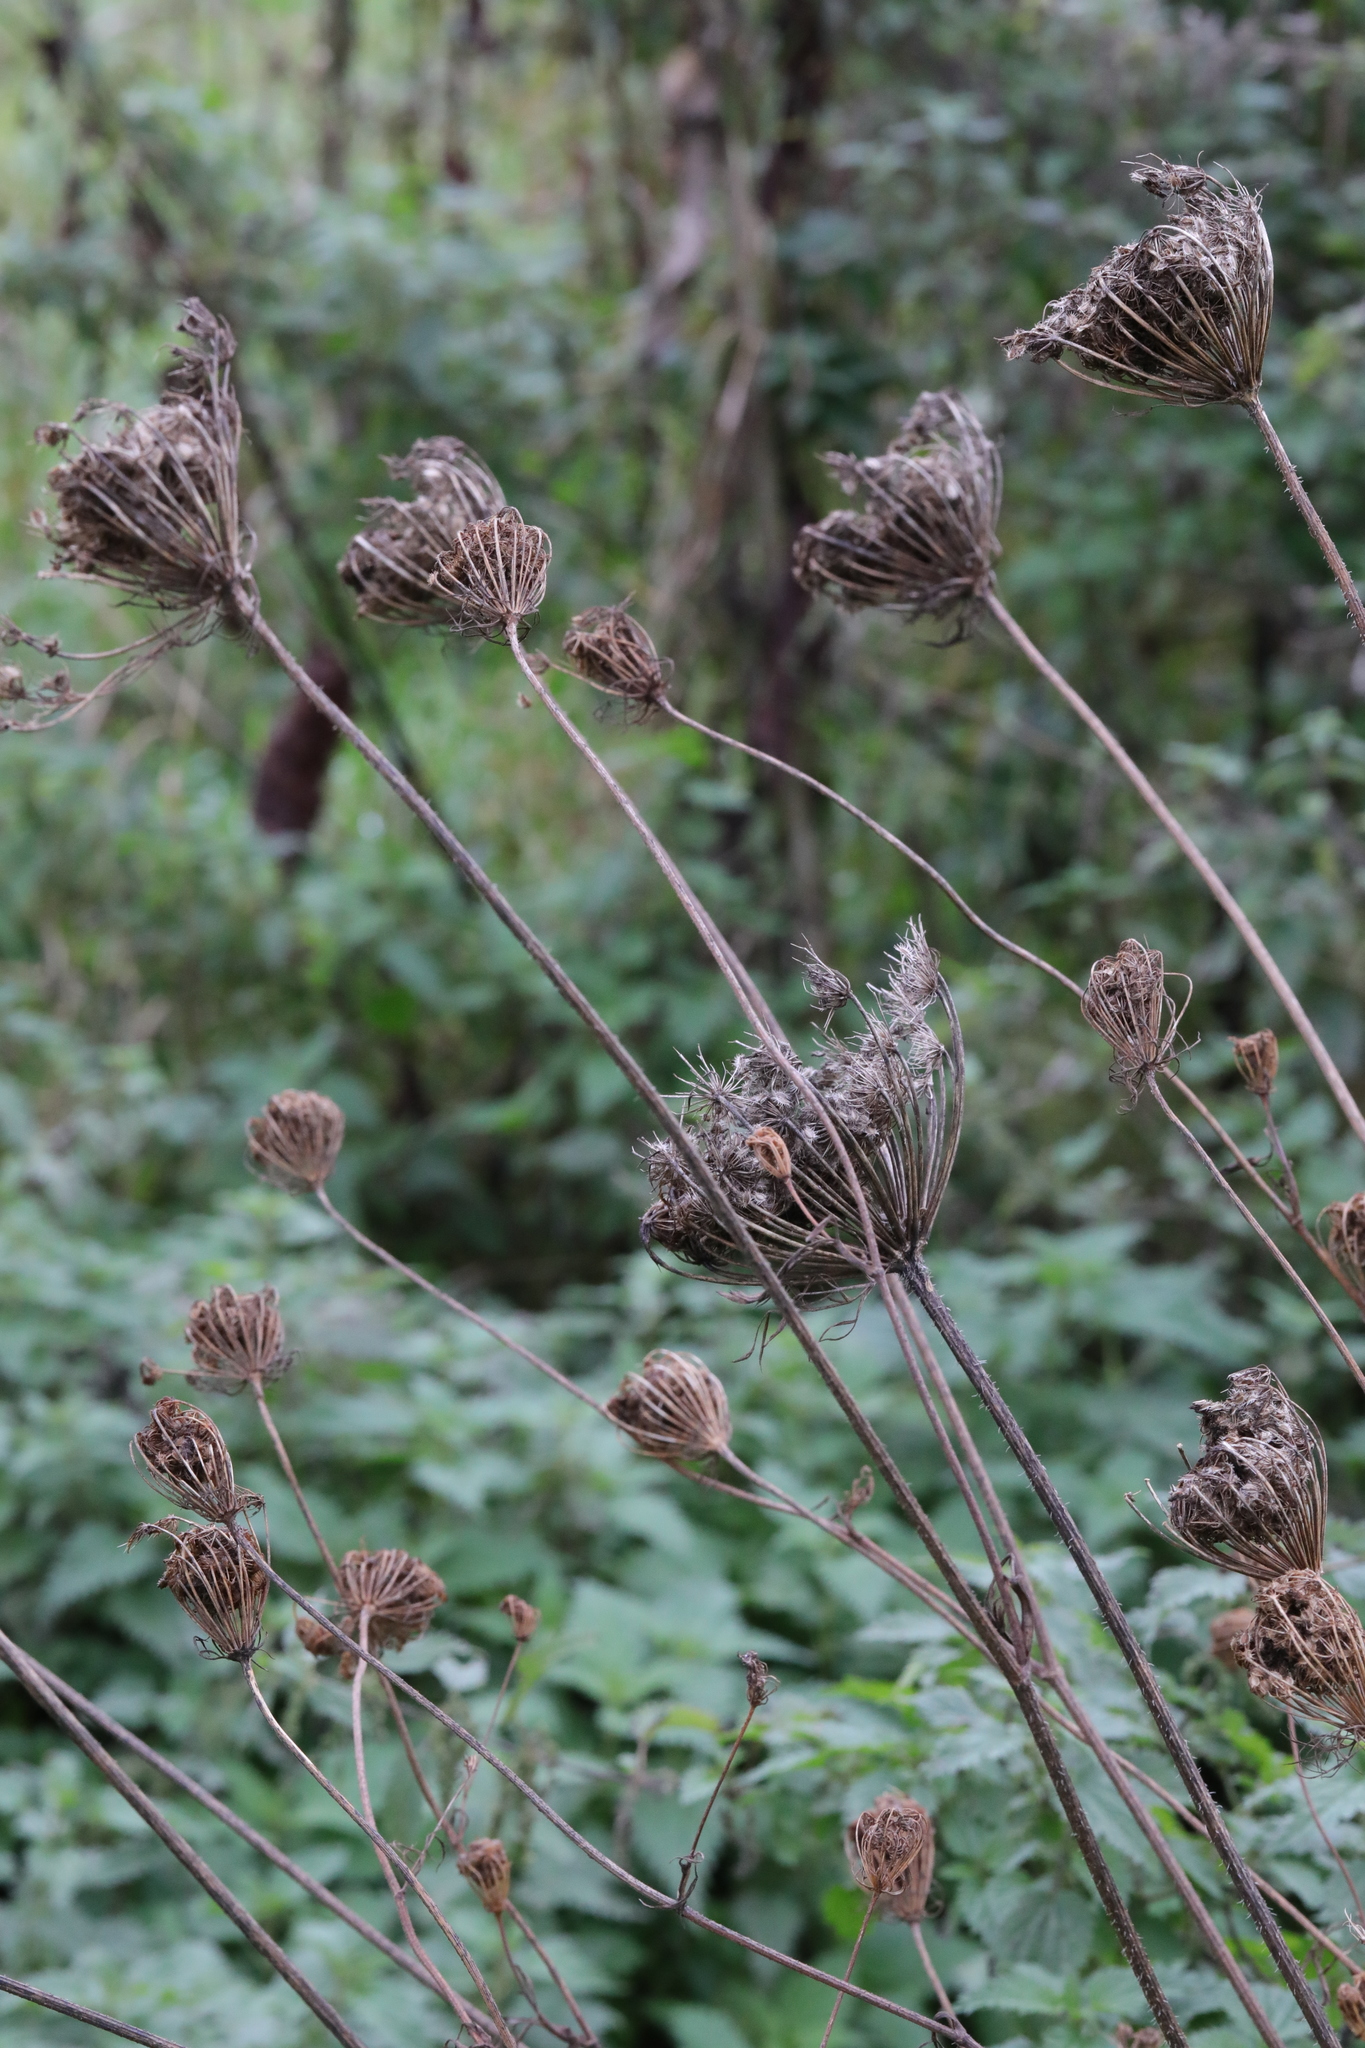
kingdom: Plantae
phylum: Tracheophyta
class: Magnoliopsida
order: Apiales
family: Apiaceae
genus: Daucus
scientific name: Daucus carota
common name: Wild carrot
